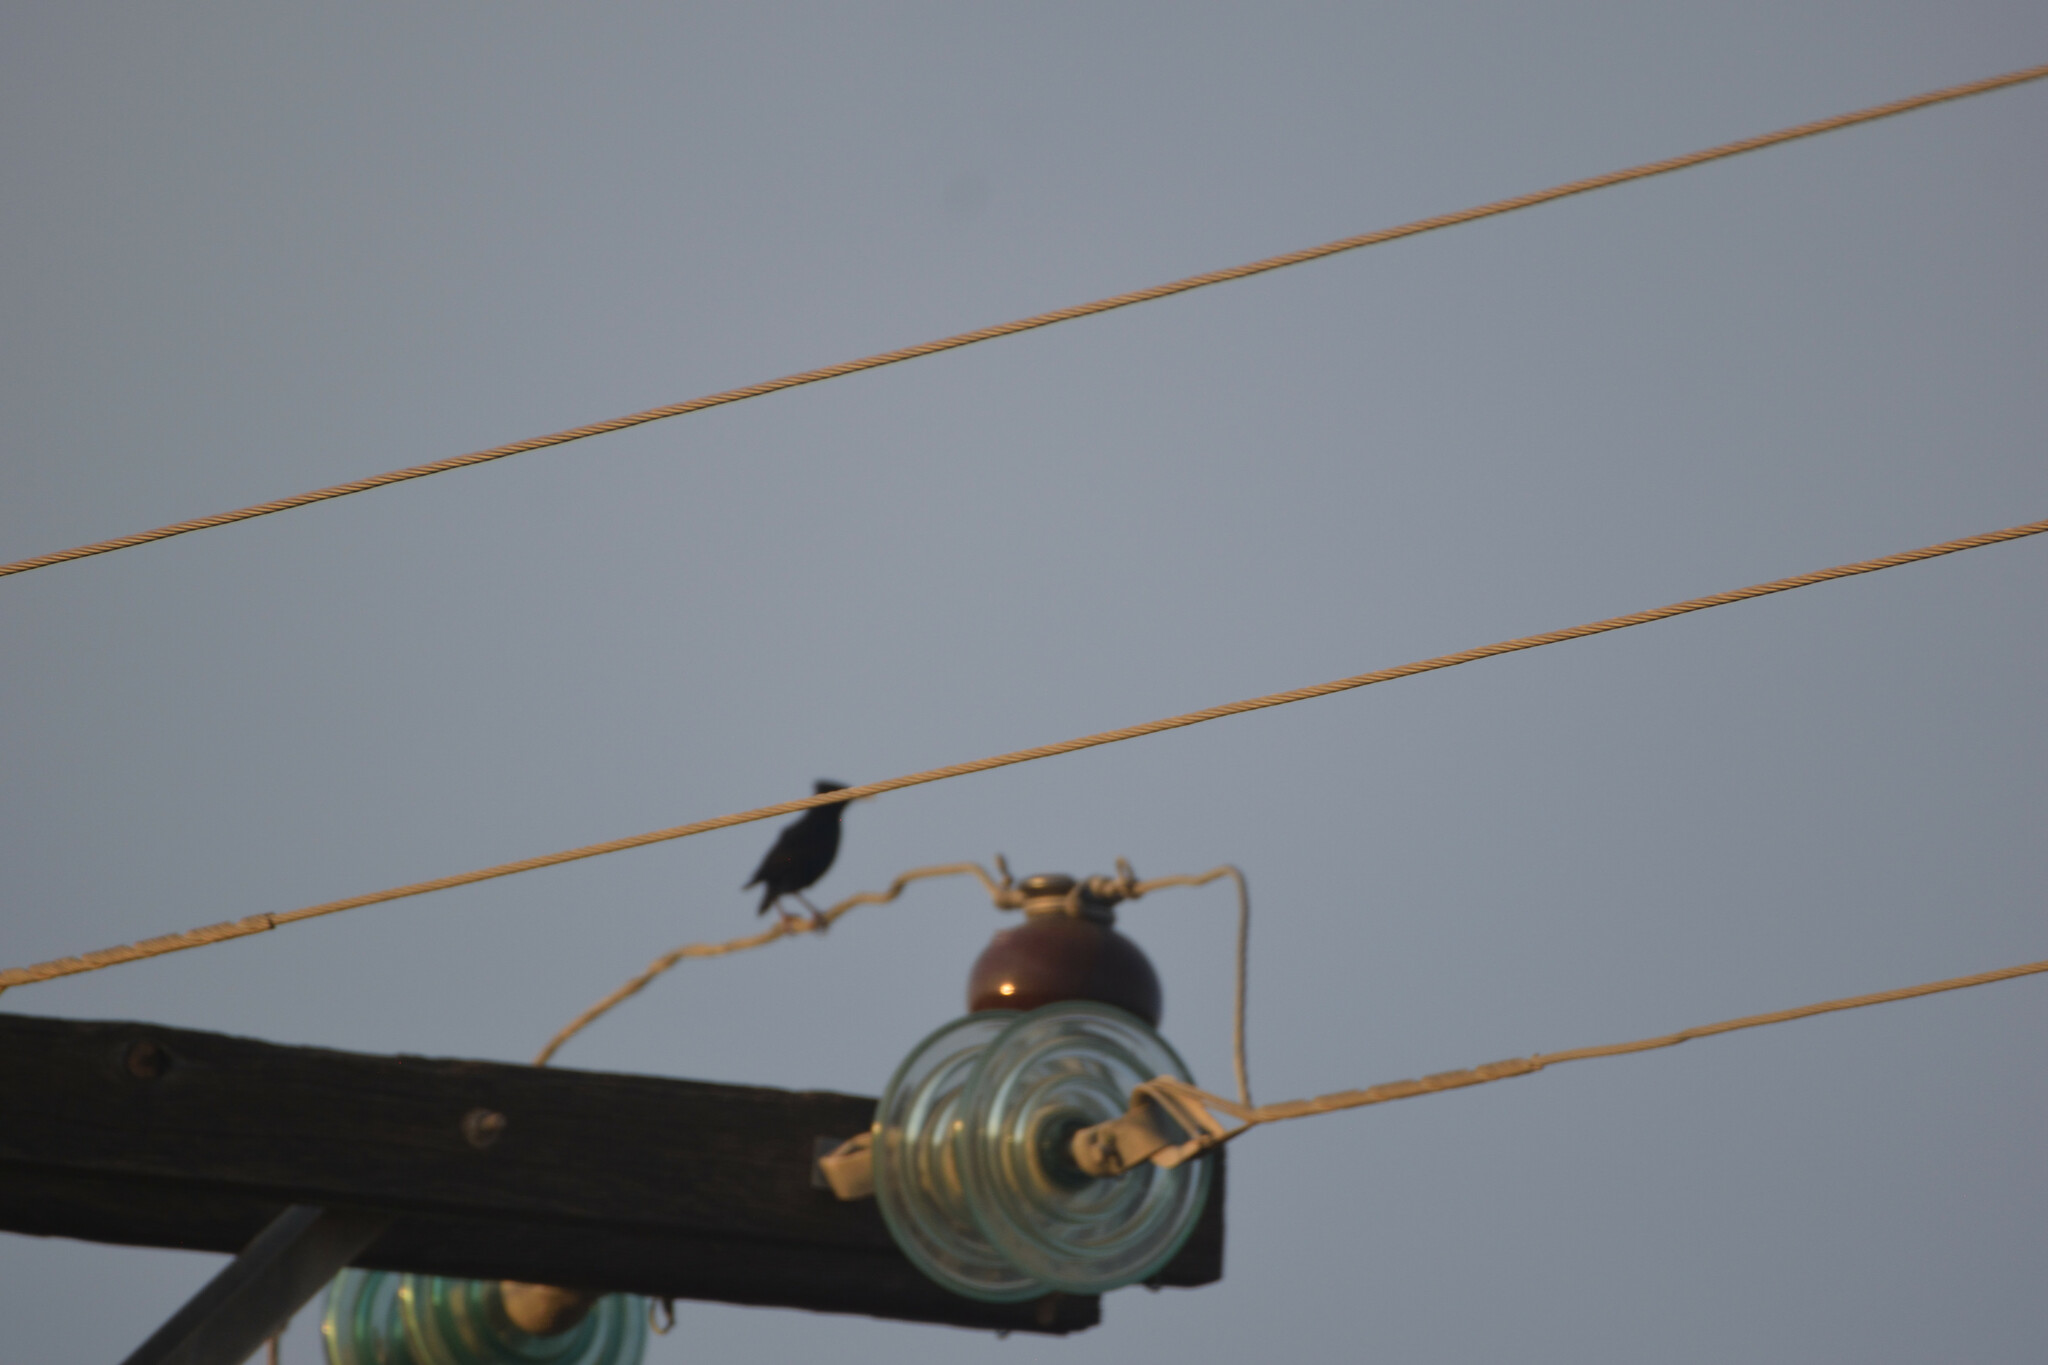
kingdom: Animalia
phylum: Chordata
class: Aves
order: Passeriformes
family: Sturnidae
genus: Sturnus
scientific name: Sturnus vulgaris
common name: Common starling
